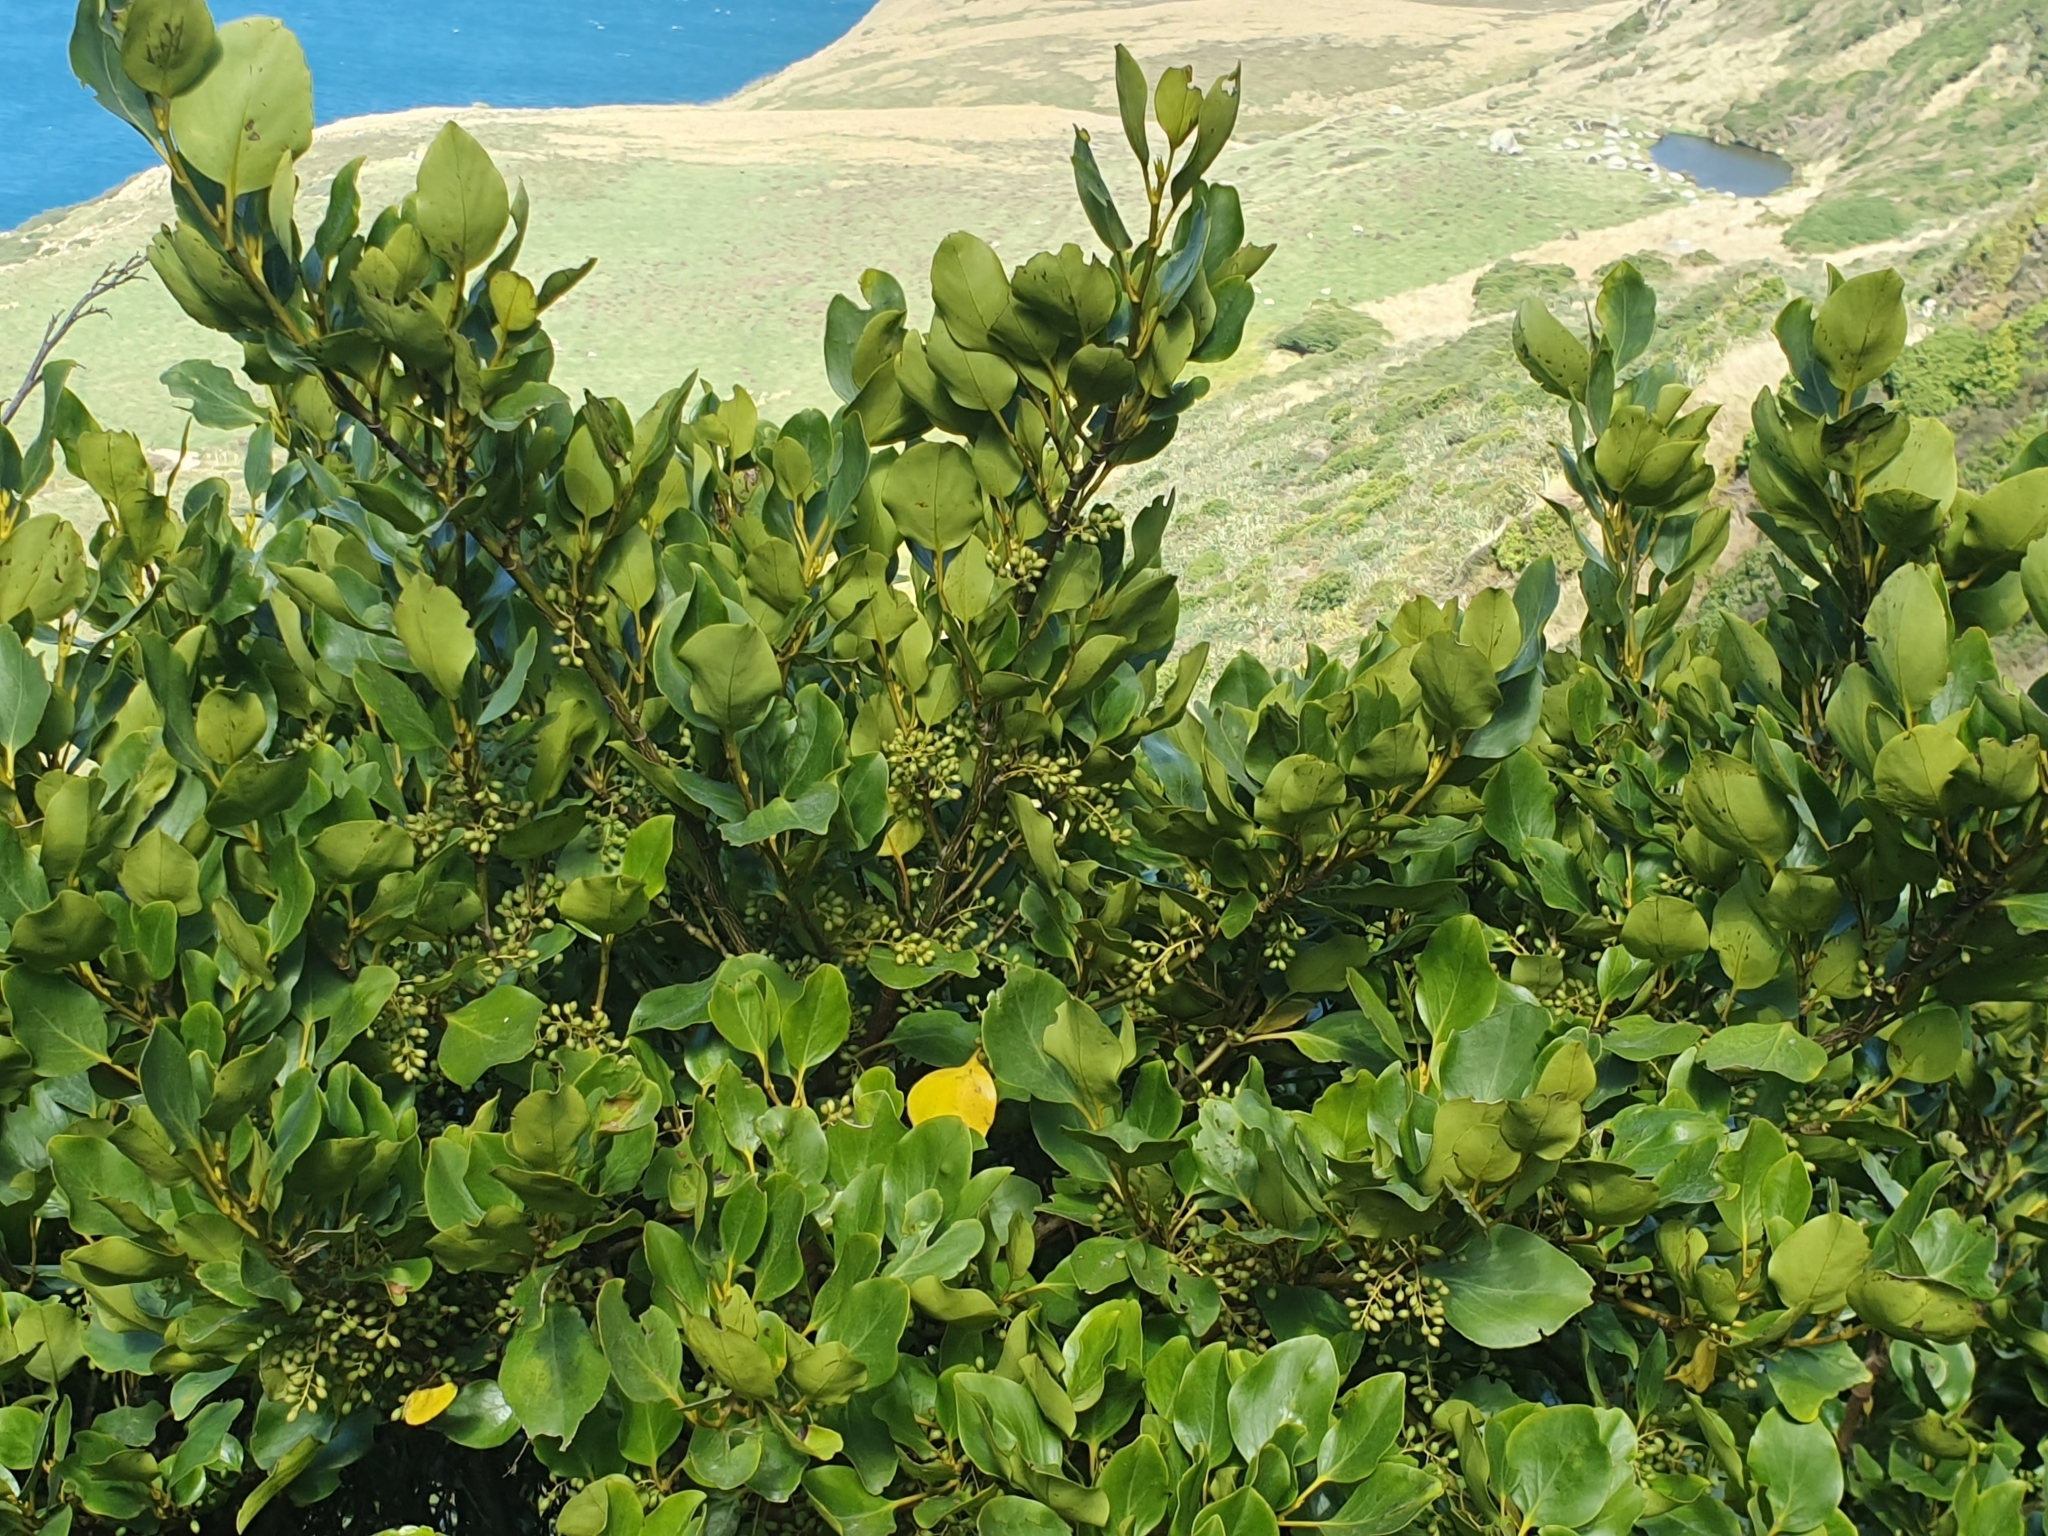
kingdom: Plantae
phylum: Tracheophyta
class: Magnoliopsida
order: Apiales
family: Griseliniaceae
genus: Griselinia
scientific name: Griselinia littoralis
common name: New zealand broadleaf
